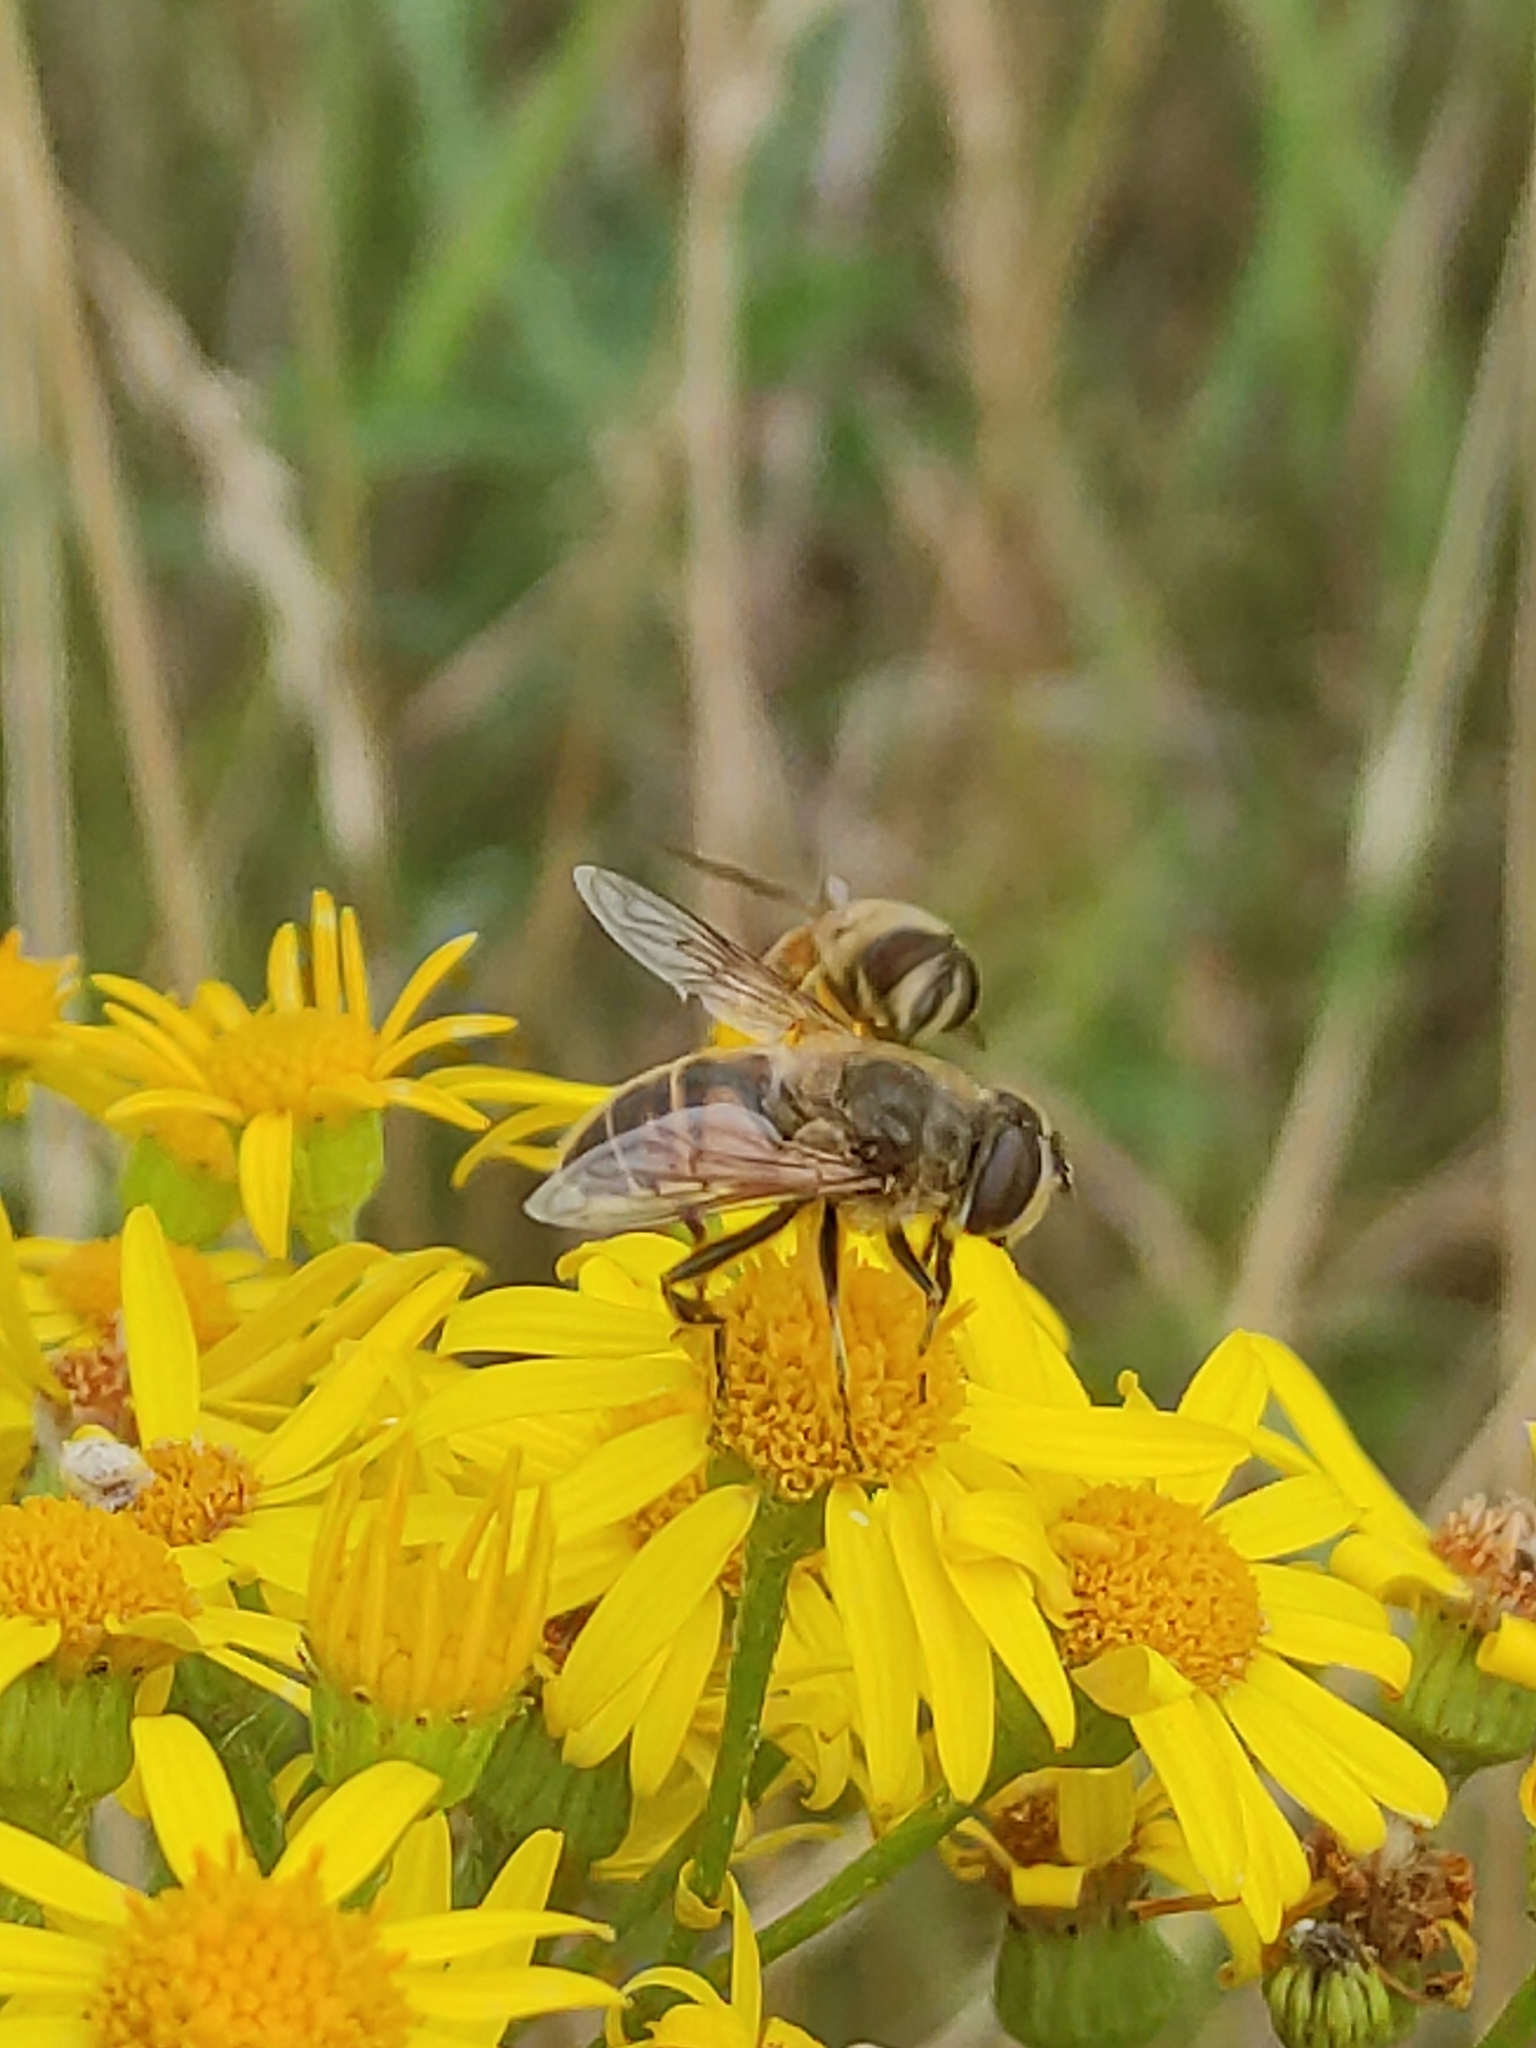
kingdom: Animalia
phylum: Arthropoda
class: Insecta
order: Diptera
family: Syrphidae
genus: Eristalis
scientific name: Eristalis tenax
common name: Drone fly
